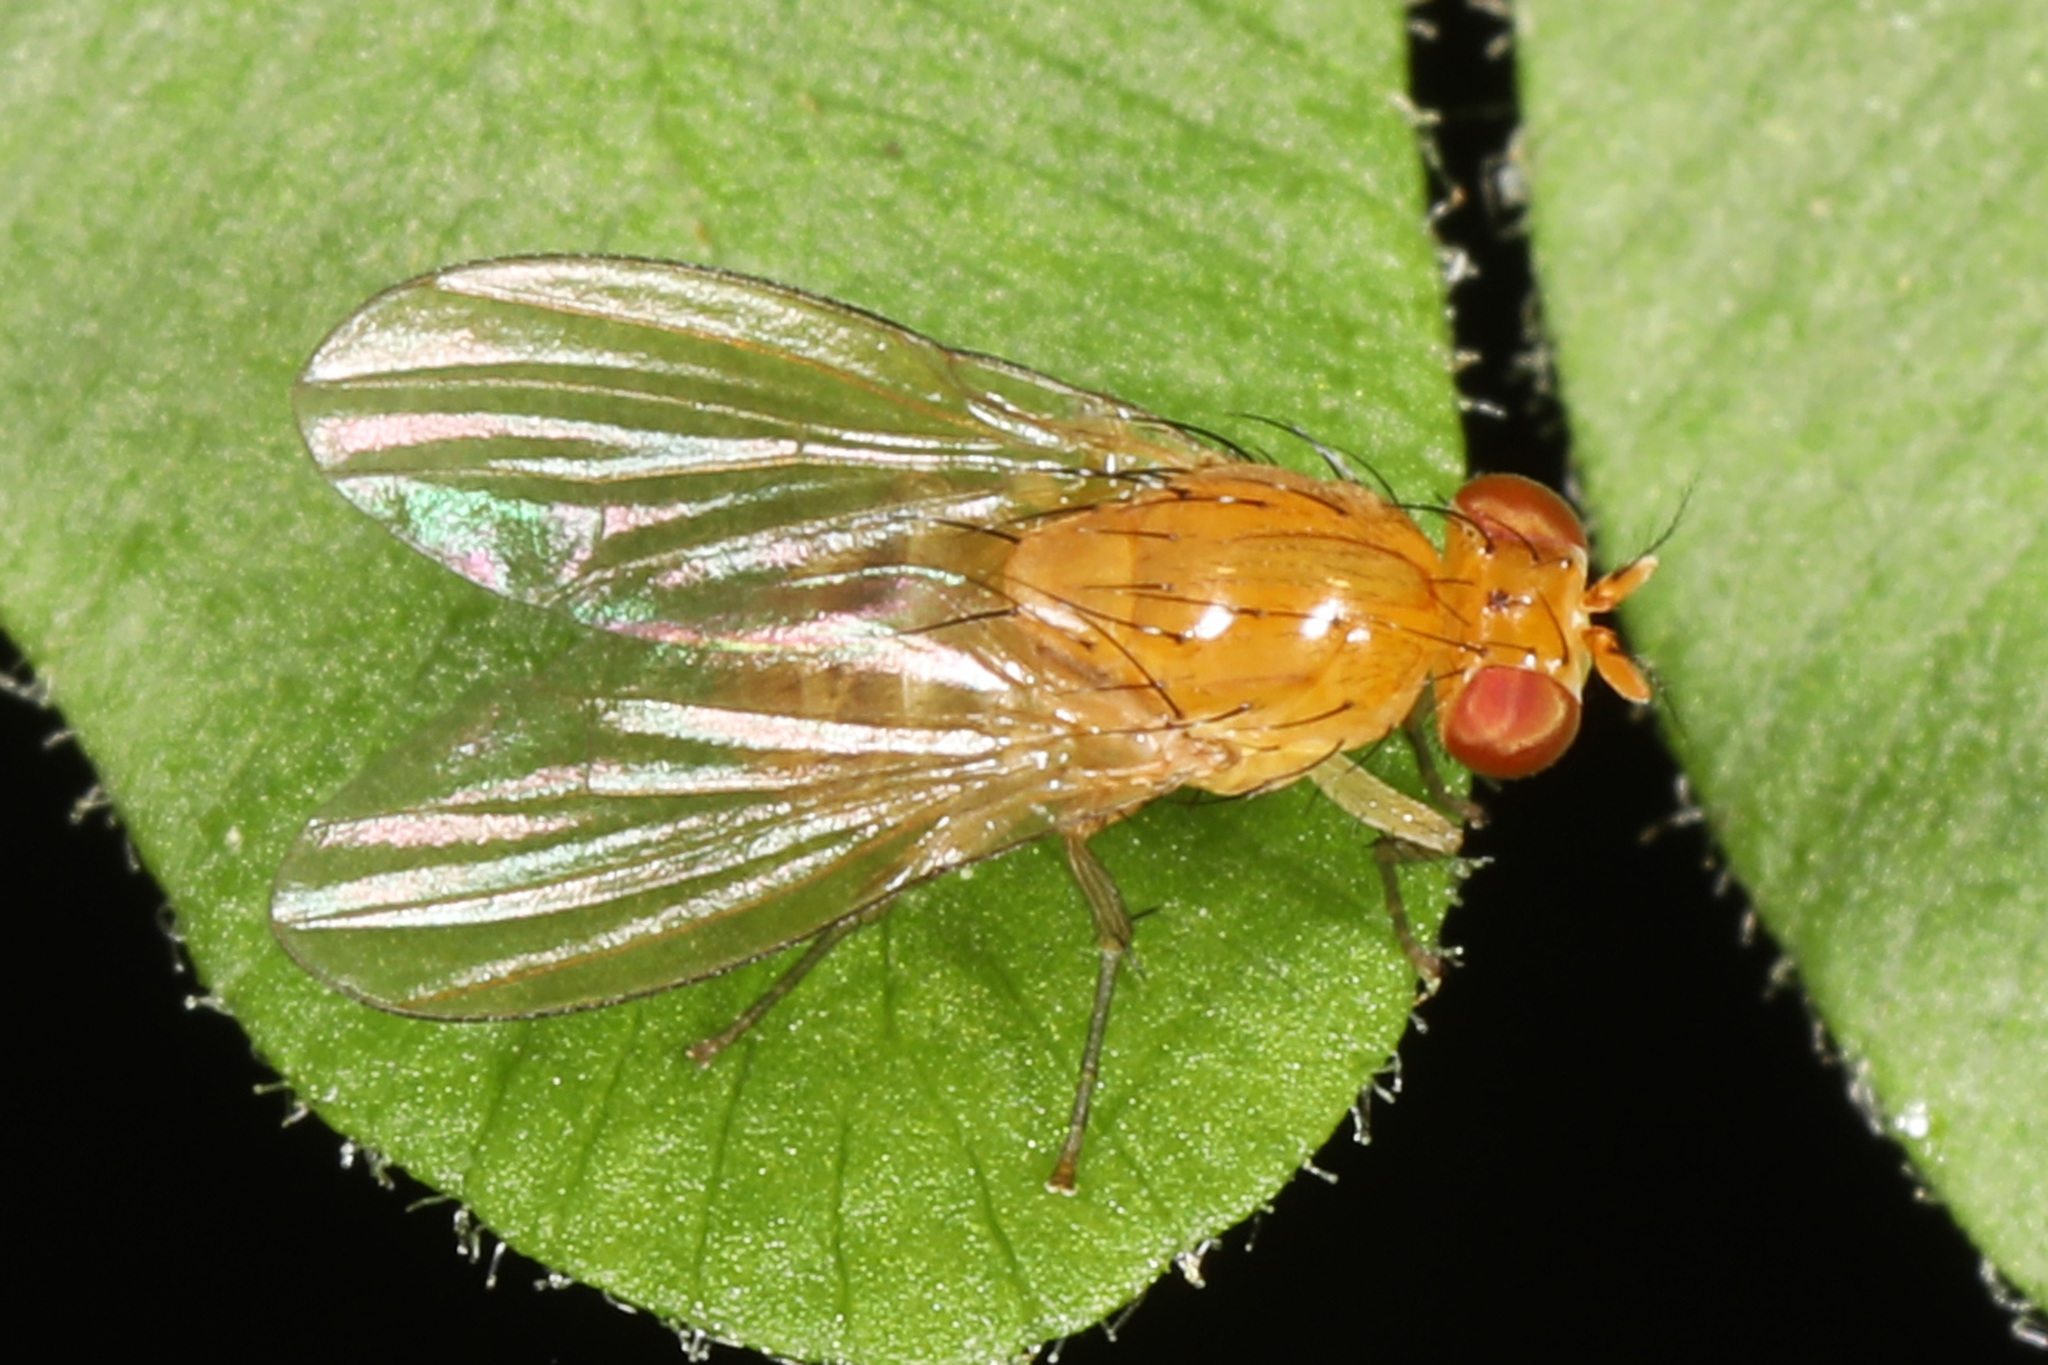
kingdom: Animalia
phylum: Arthropoda
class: Insecta
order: Diptera
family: Lauxaniidae
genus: Neogriphoneura
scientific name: Neogriphoneura sordida
